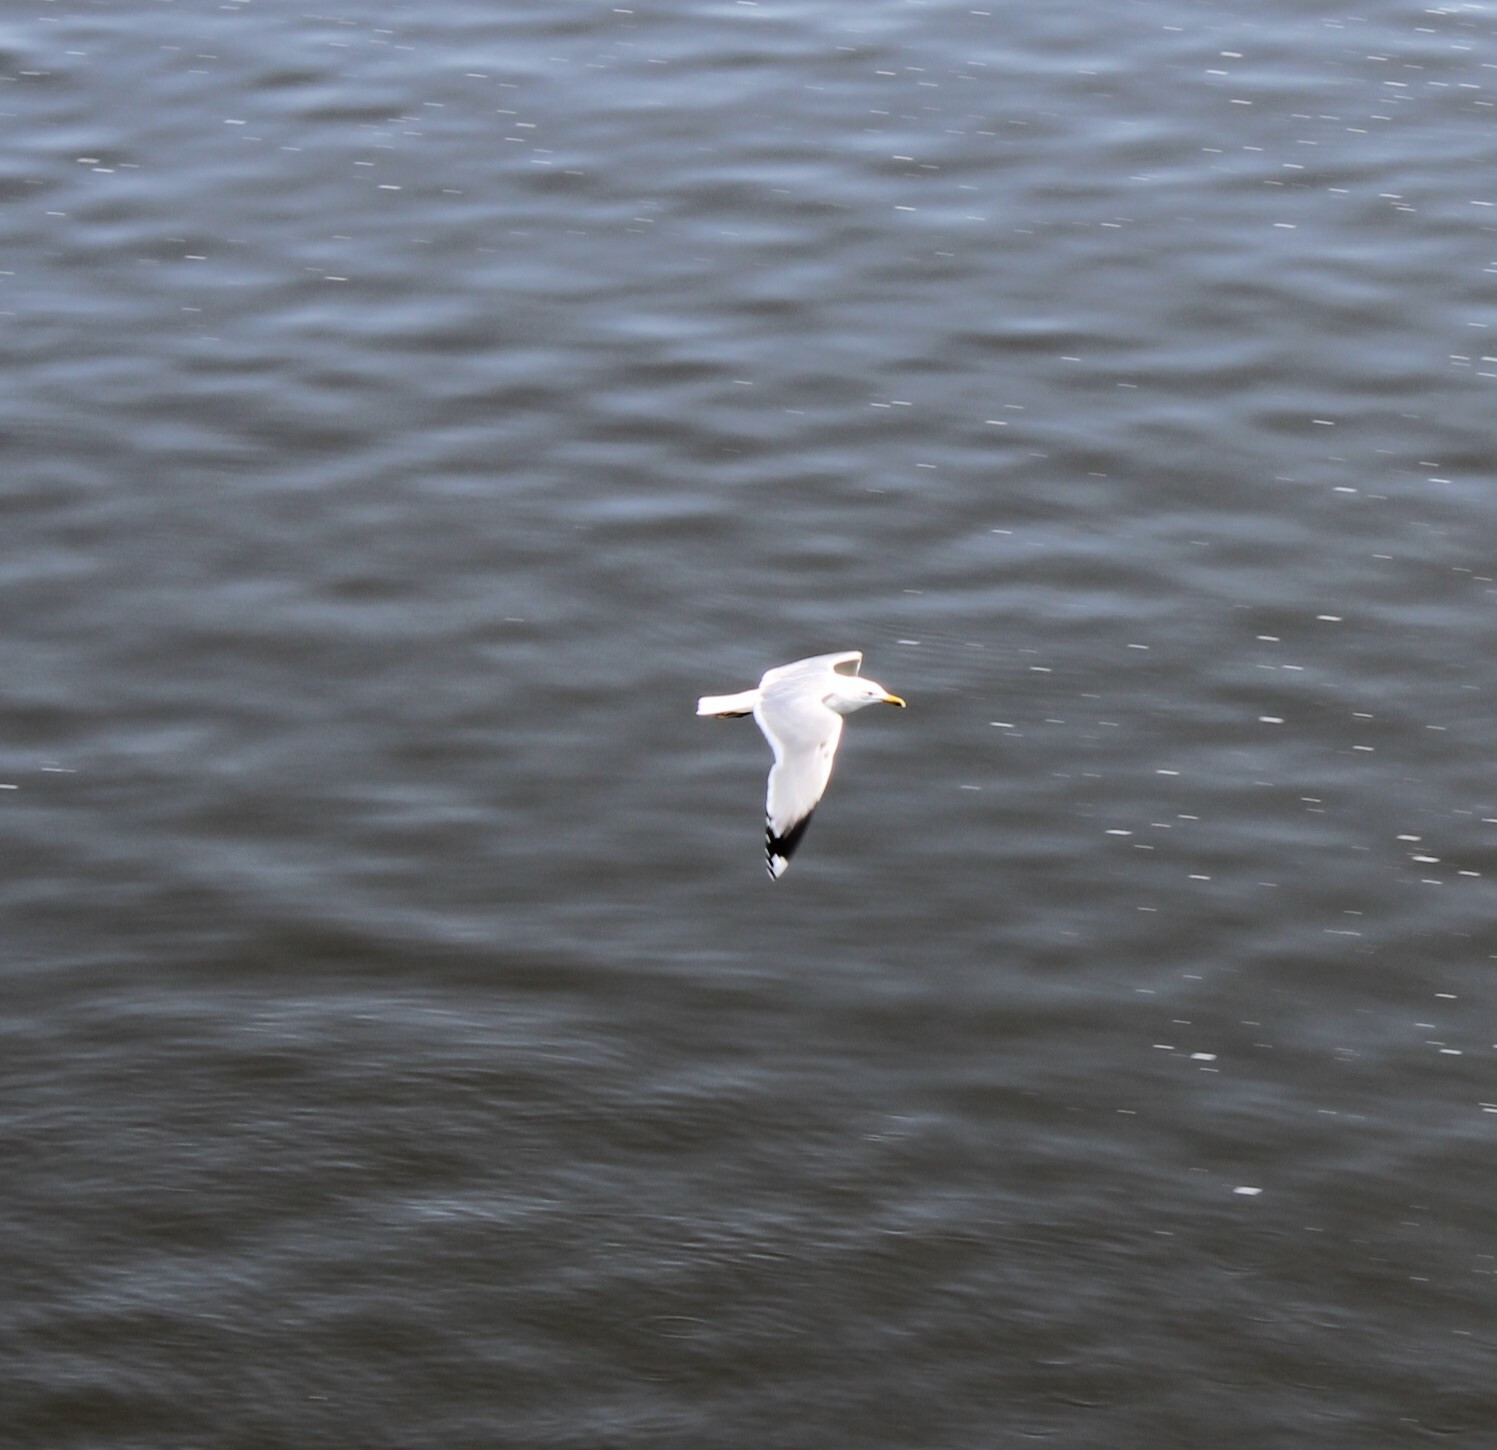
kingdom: Animalia
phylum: Chordata
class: Aves
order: Charadriiformes
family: Laridae
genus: Larus
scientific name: Larus cachinnans
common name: Caspian gull
